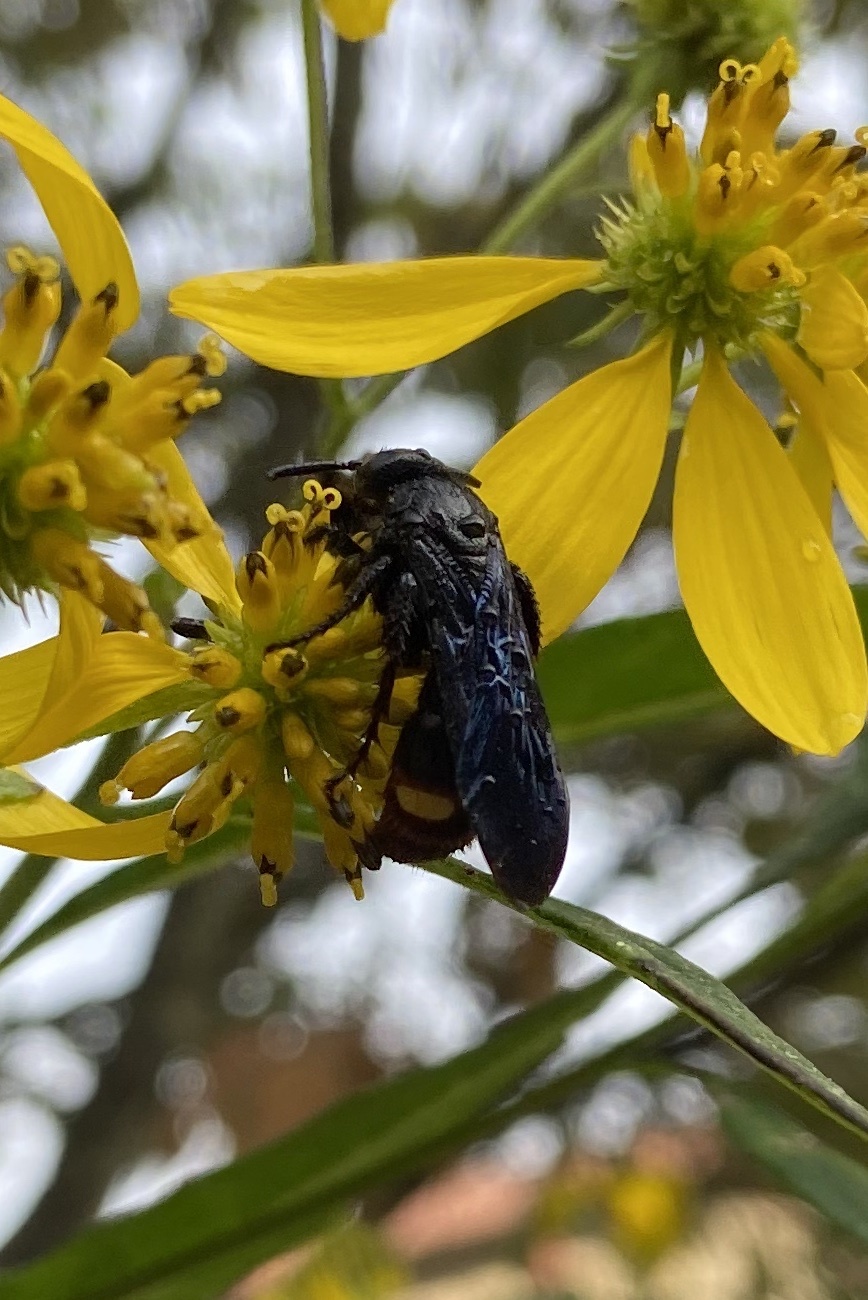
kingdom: Animalia
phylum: Arthropoda
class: Insecta
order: Hymenoptera
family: Scoliidae
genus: Scolia
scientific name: Scolia dubia
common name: Blue-winged scoliid wasp
